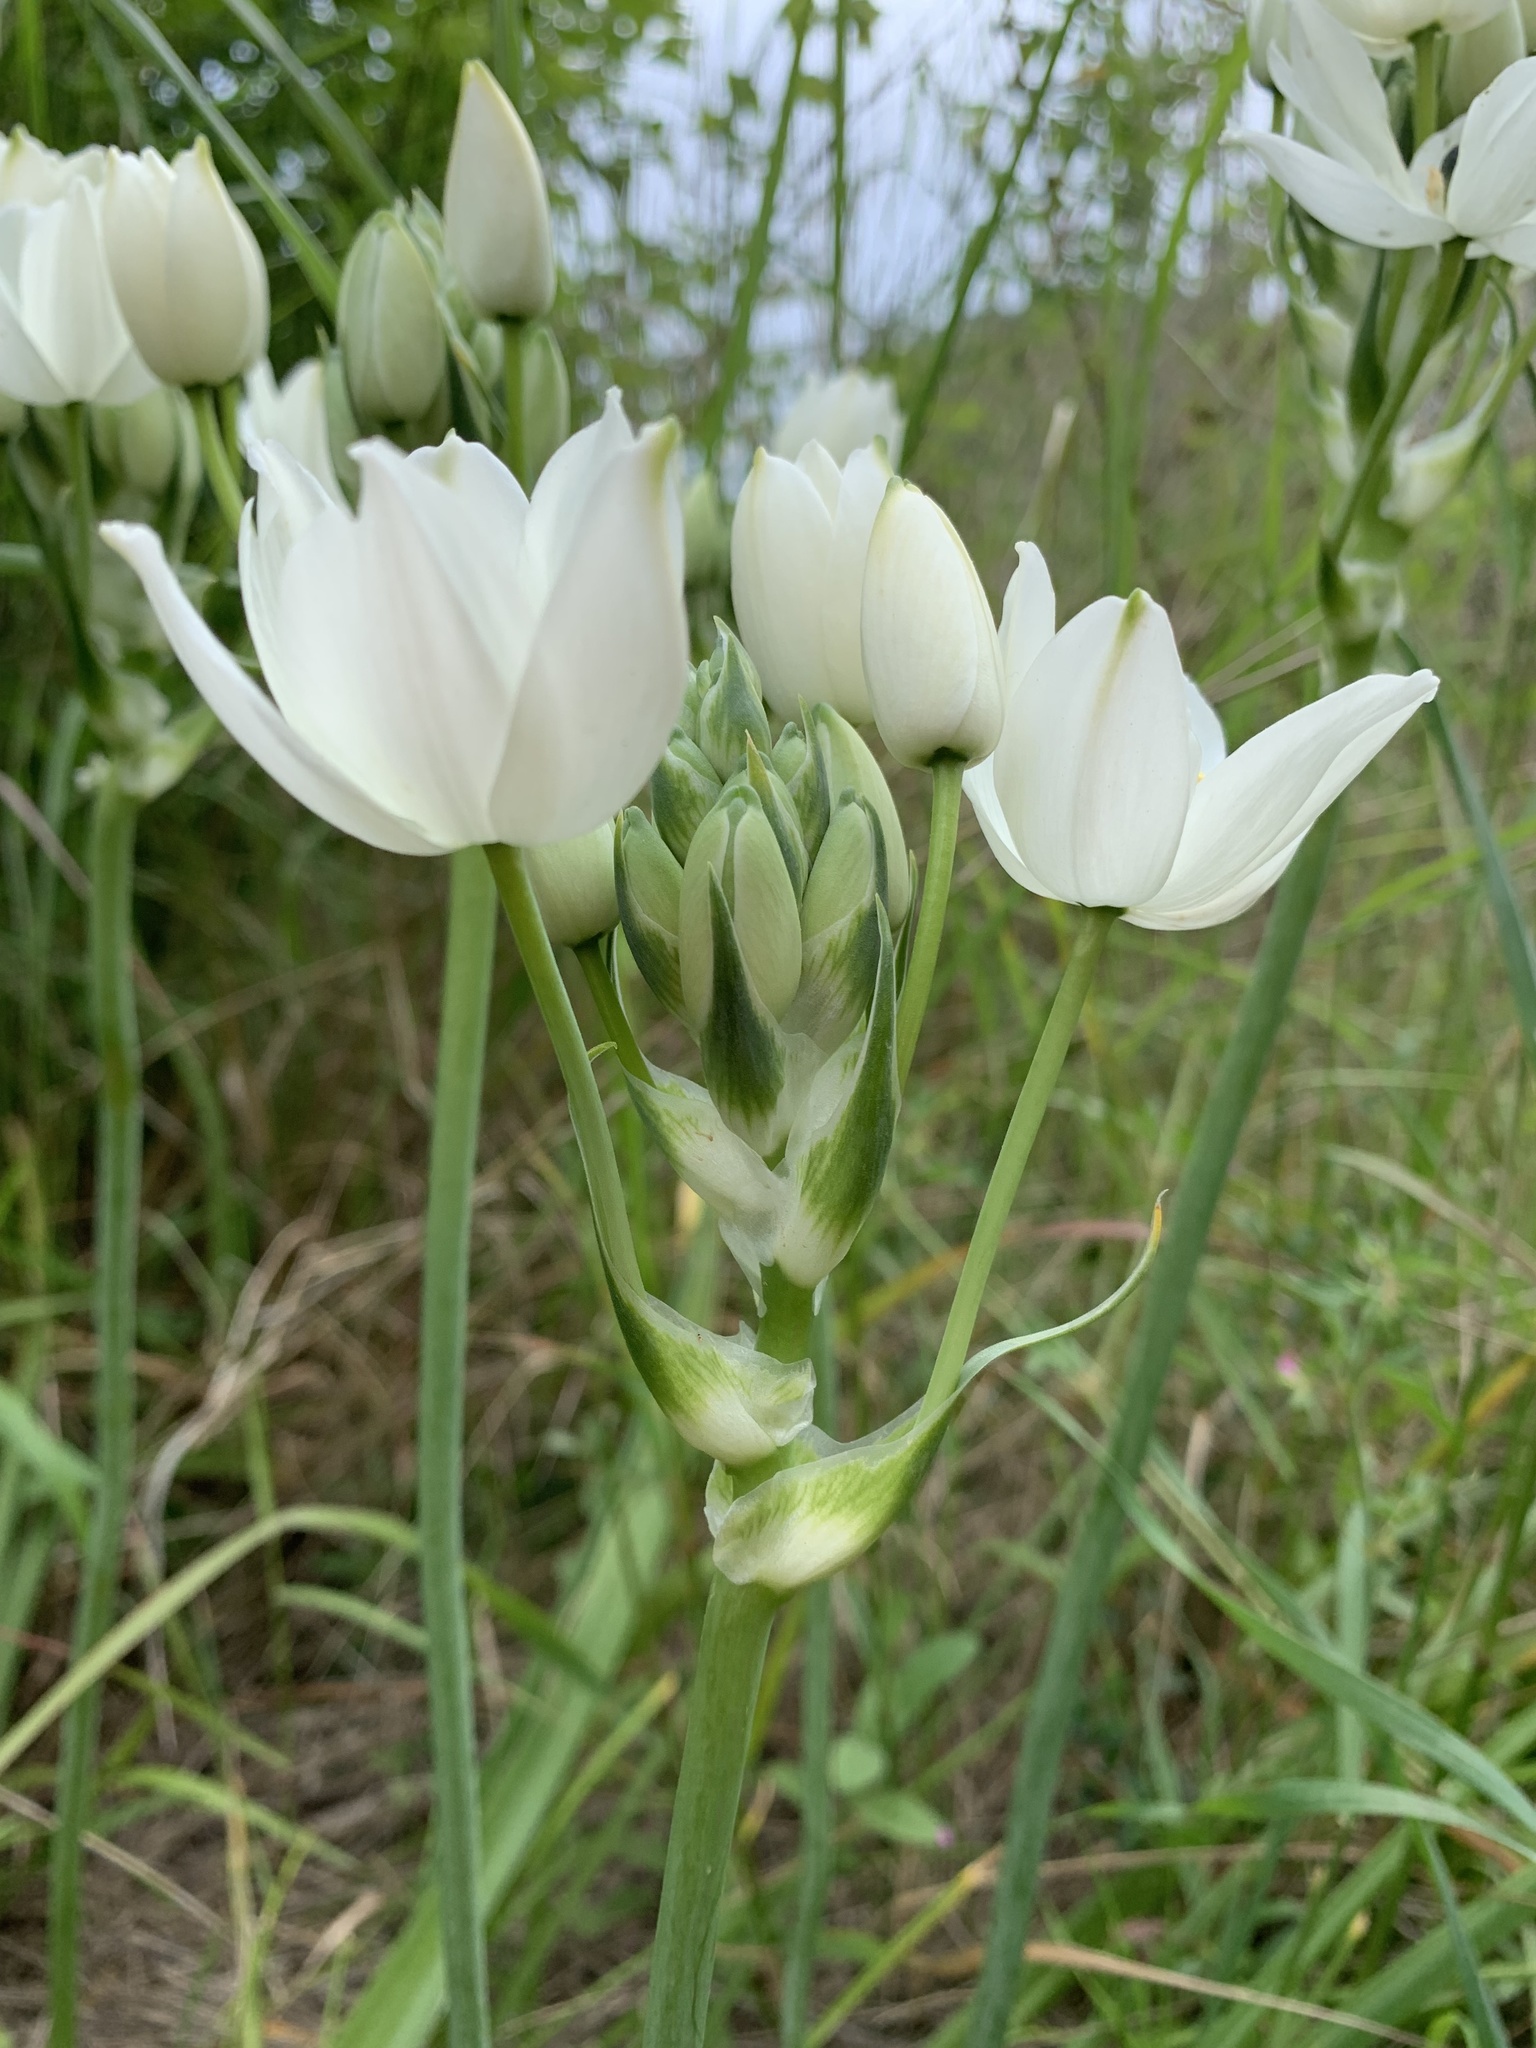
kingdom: Plantae
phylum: Tracheophyta
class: Liliopsida
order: Asparagales
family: Asparagaceae
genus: Ornithogalum
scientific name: Ornithogalum arabicum
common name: Arabian starflower
